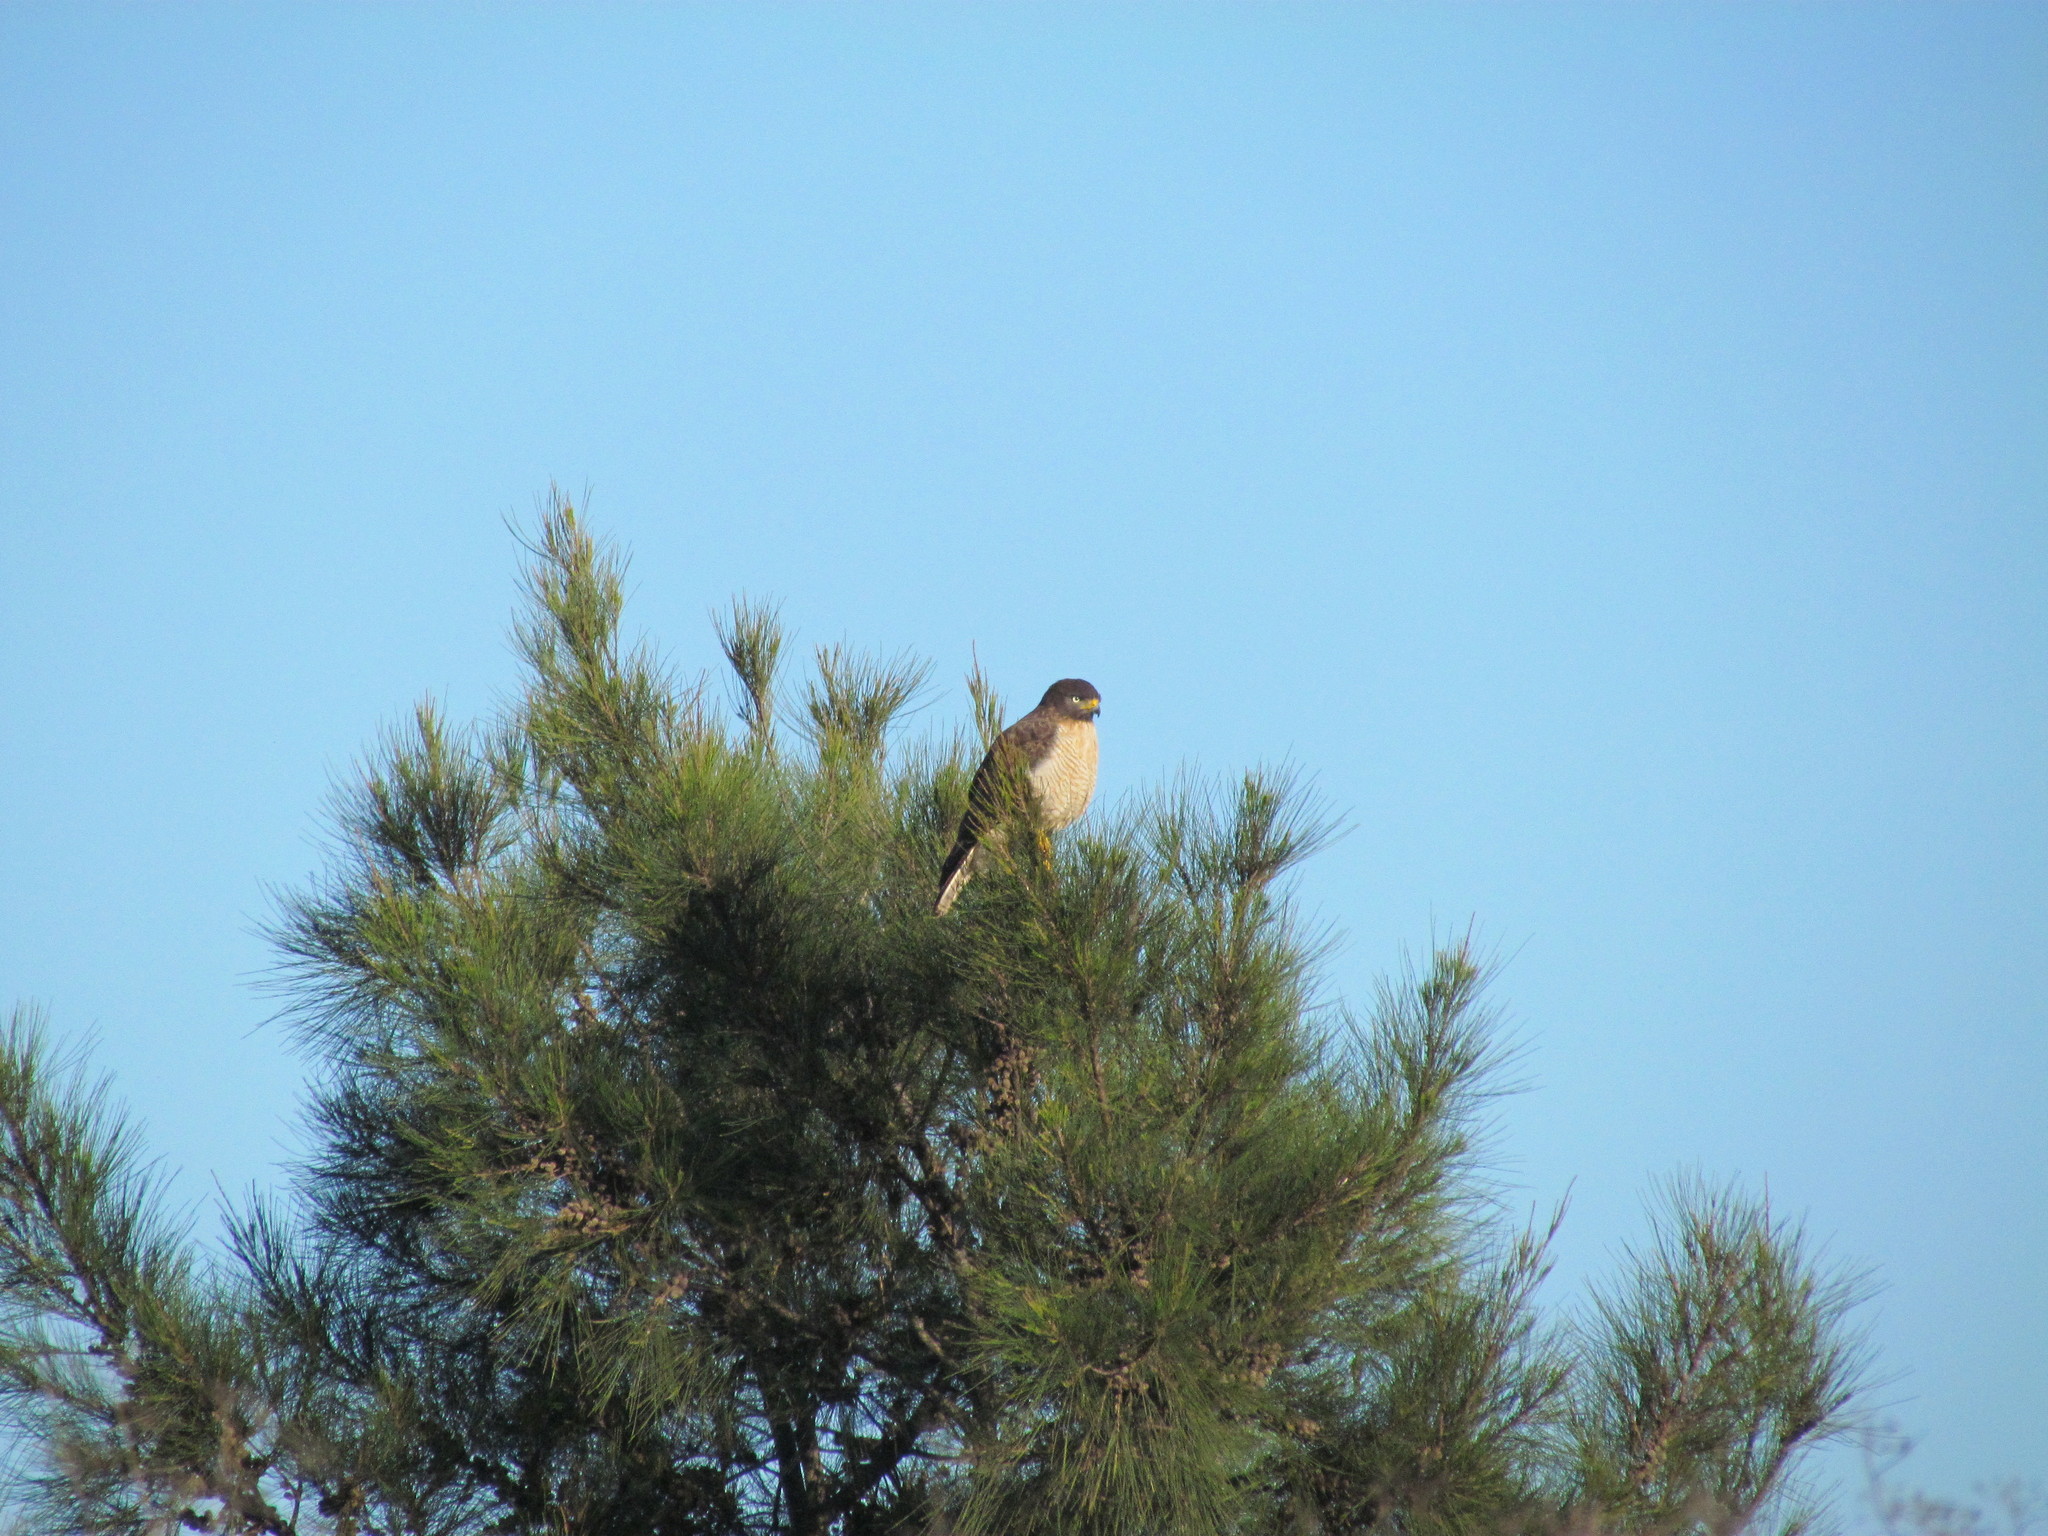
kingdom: Animalia
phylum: Chordata
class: Aves
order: Accipitriformes
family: Accipitridae
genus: Rupornis
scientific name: Rupornis magnirostris
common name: Roadside hawk
